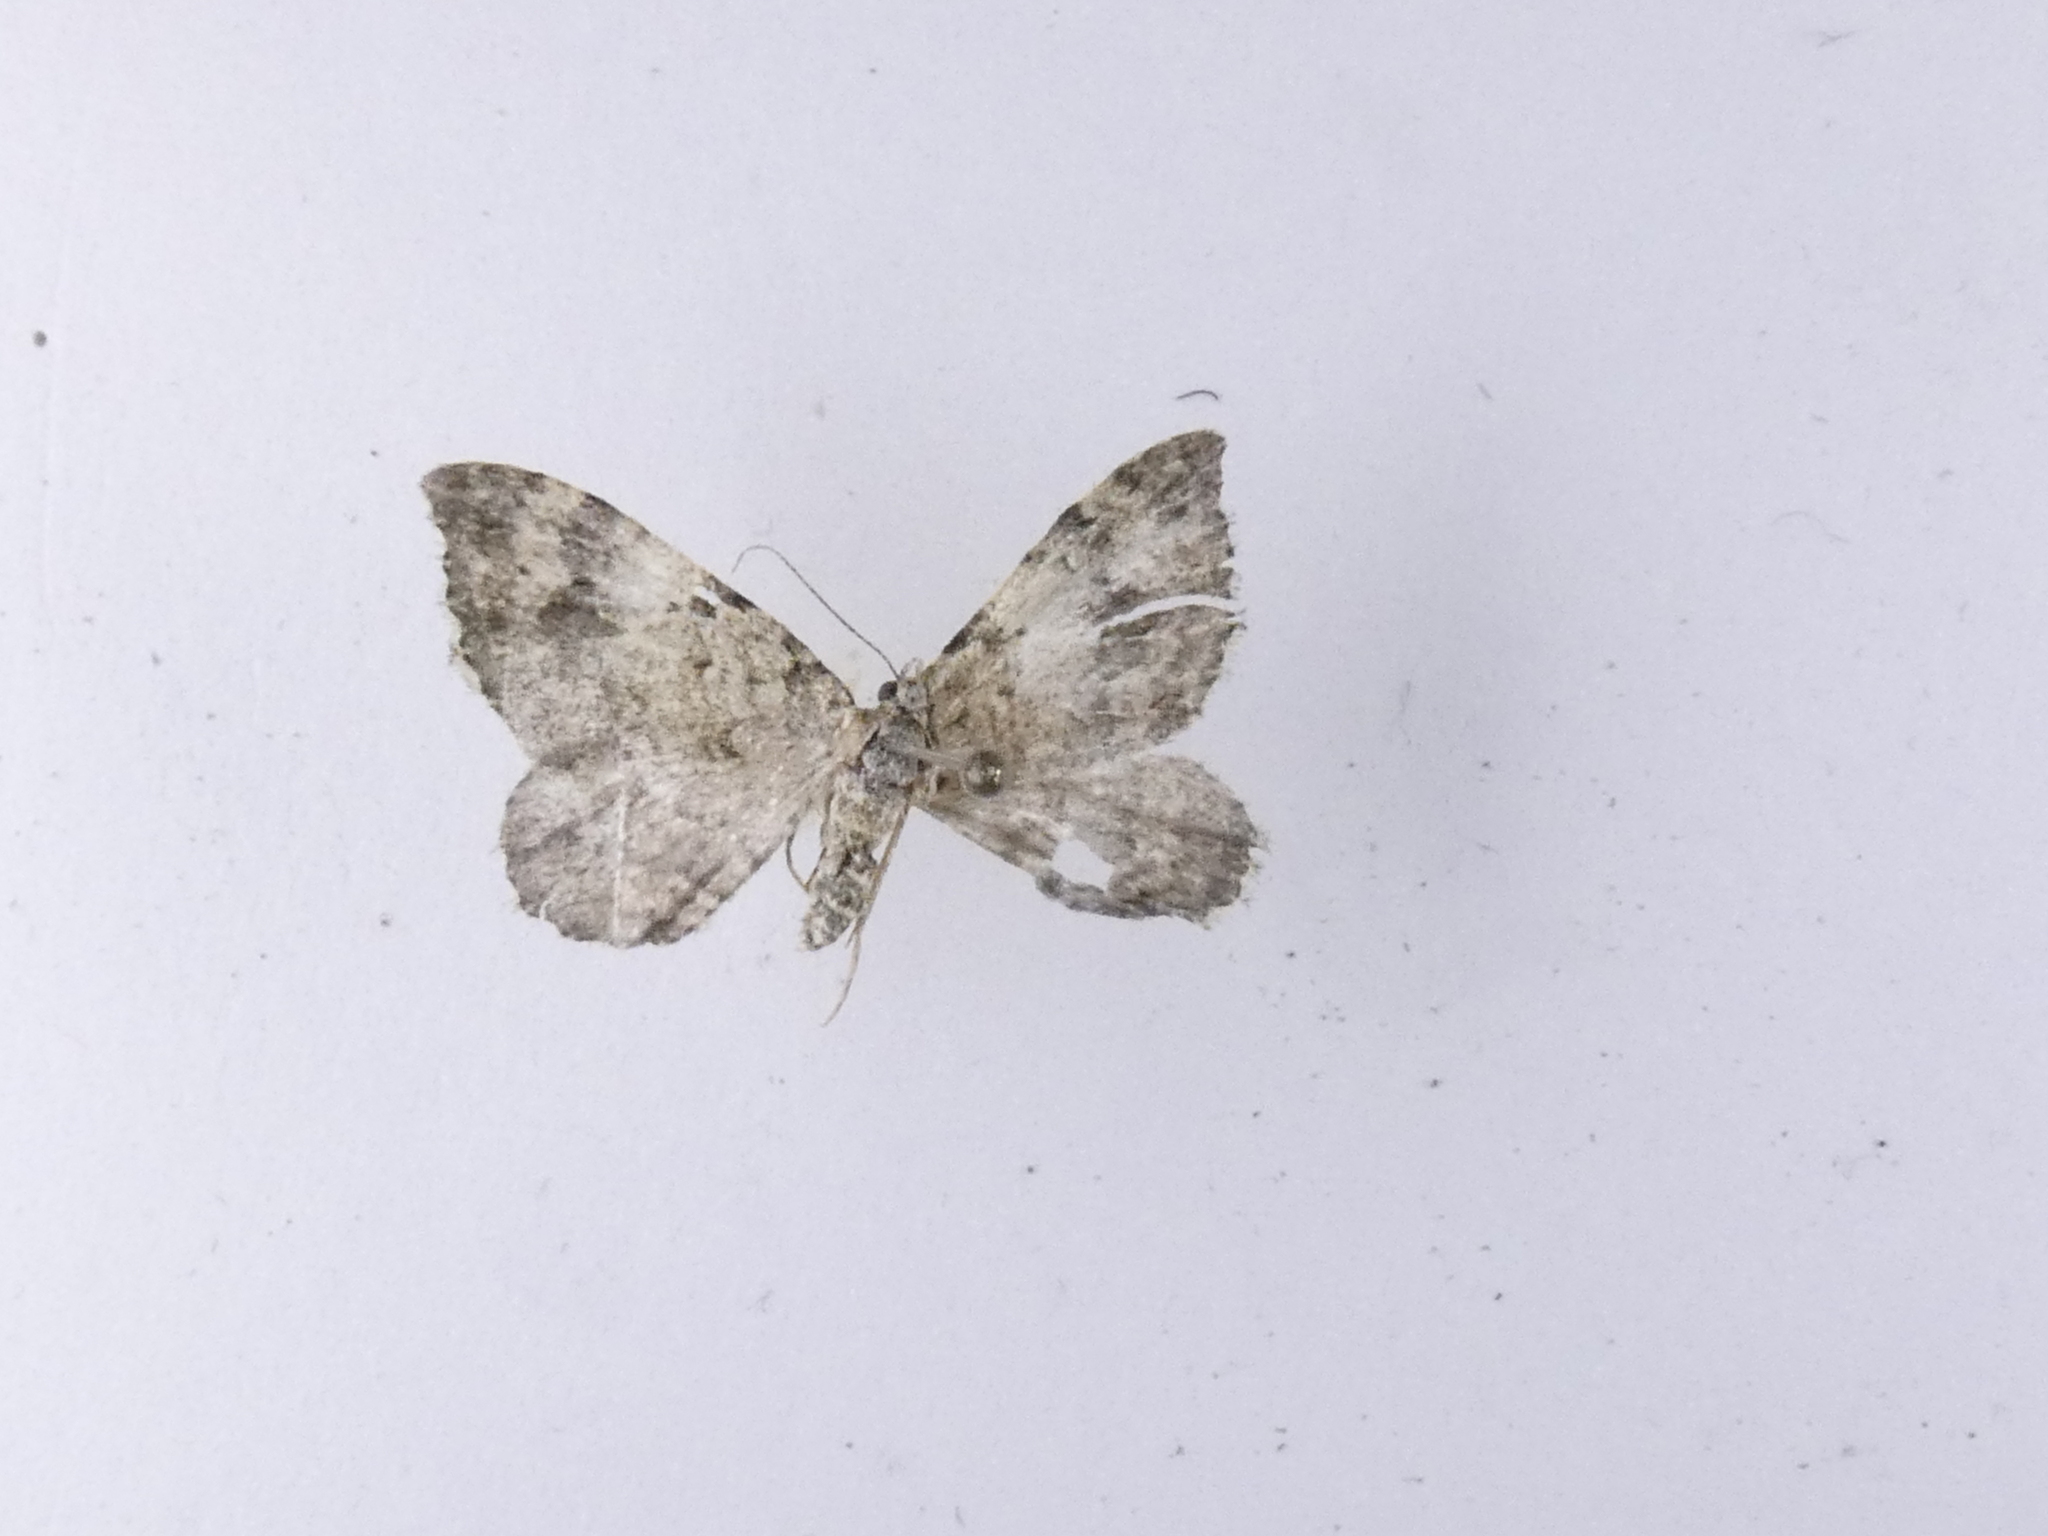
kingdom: Animalia
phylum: Arthropoda
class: Insecta
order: Lepidoptera
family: Geometridae
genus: Helastia
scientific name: Helastia cinerearia
